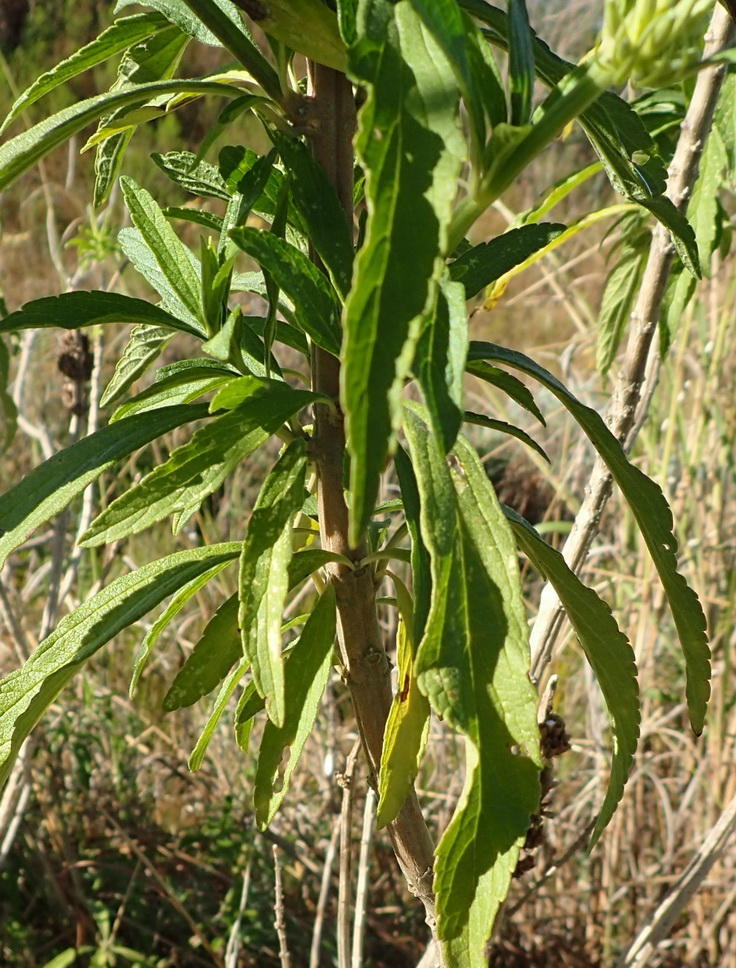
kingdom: Plantae
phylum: Tracheophyta
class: Magnoliopsida
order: Lamiales
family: Lamiaceae
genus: Leonotis
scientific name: Leonotis leonurus
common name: Lion's ear
